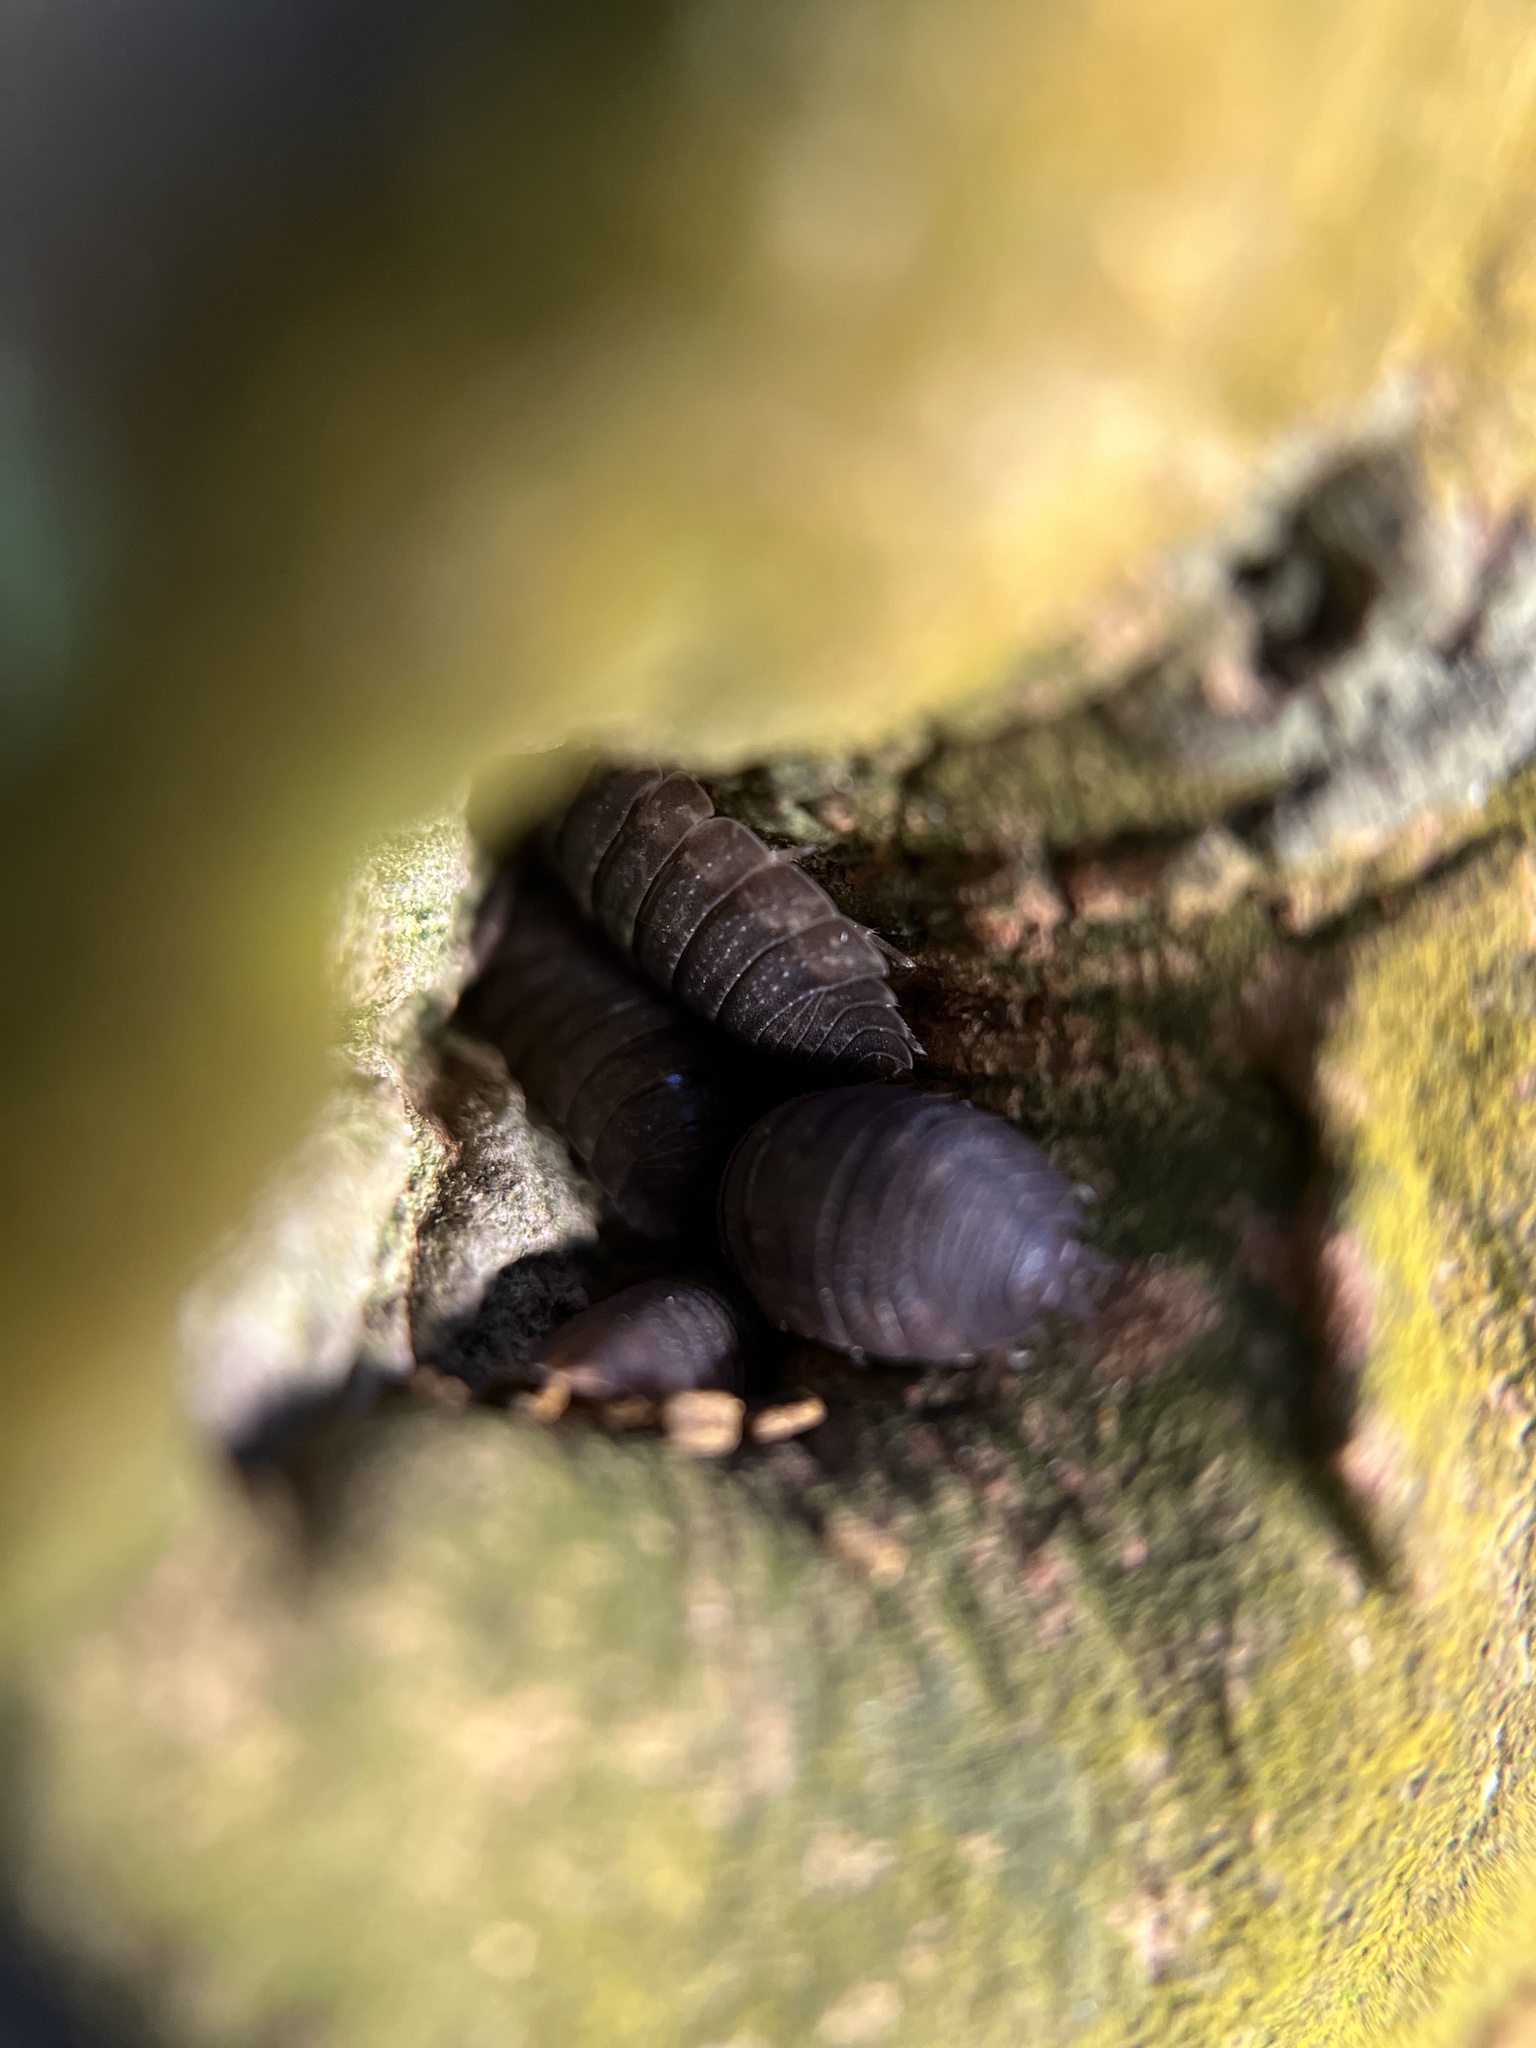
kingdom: Animalia
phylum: Arthropoda
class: Malacostraca
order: Isopoda
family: Porcellionidae
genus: Porcellio
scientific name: Porcellio scaber
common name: Common rough woodlouse
